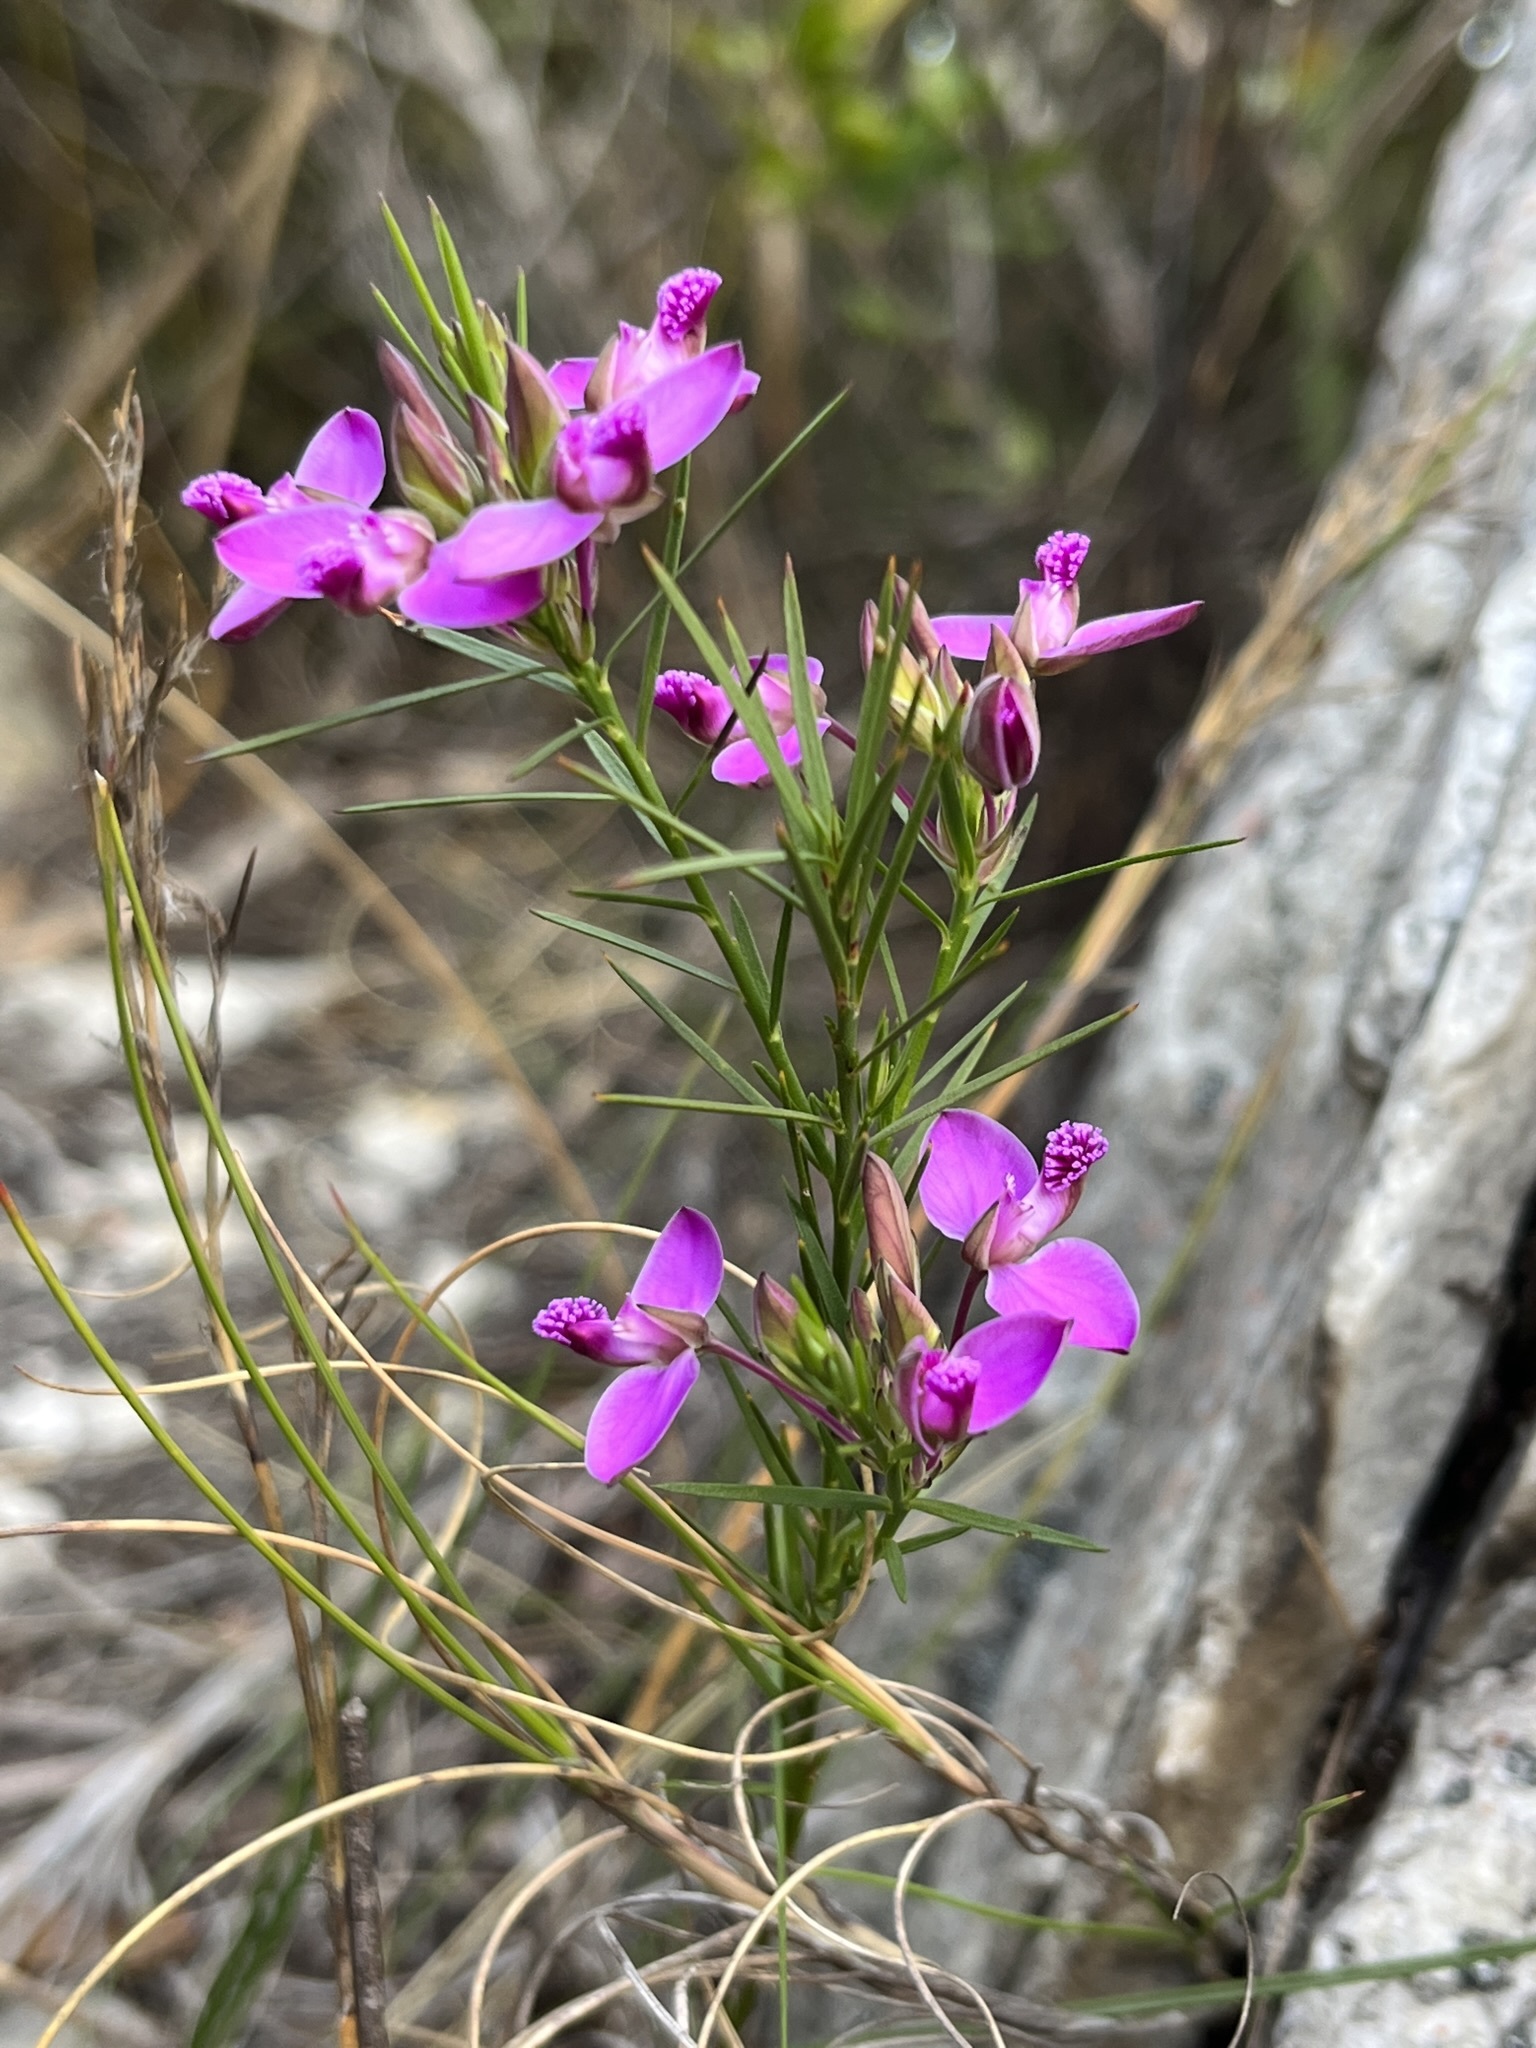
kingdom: Plantae
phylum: Tracheophyta
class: Magnoliopsida
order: Fabales
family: Polygalaceae
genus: Polygala
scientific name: Polygala umbellata
